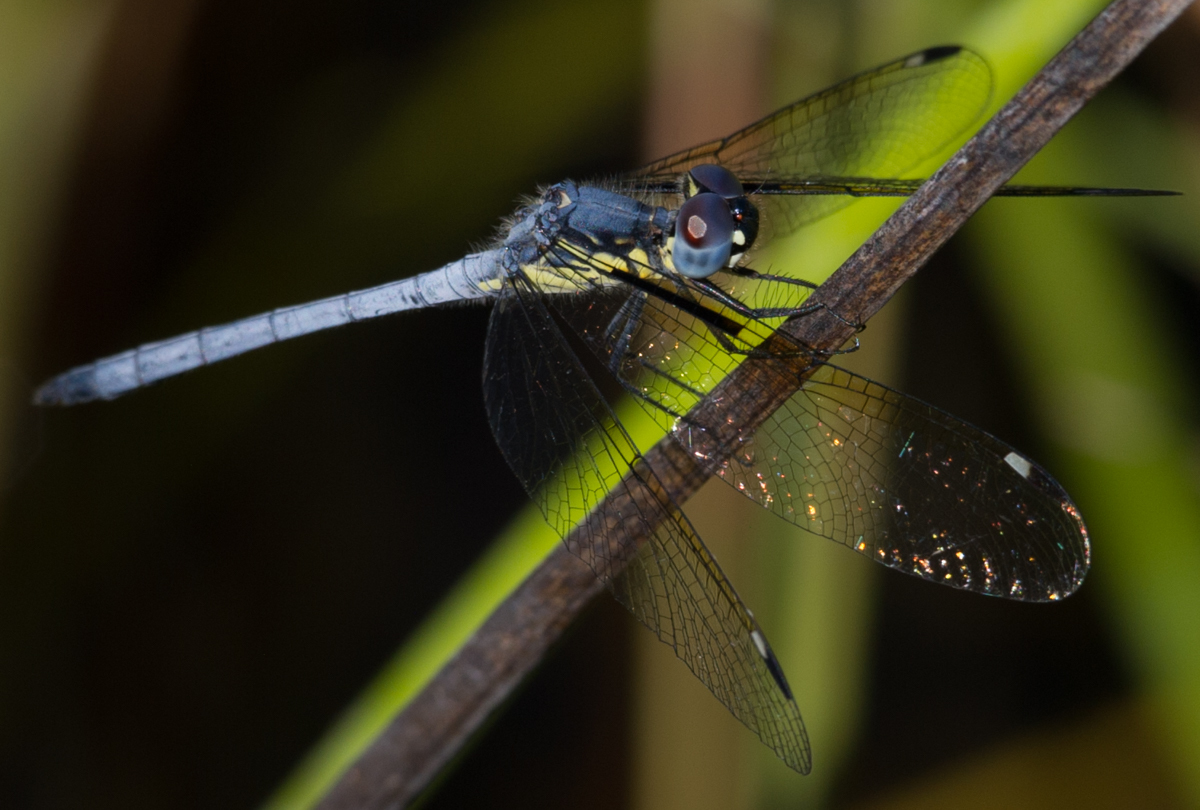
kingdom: Animalia
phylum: Arthropoda
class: Insecta
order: Odonata
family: Libellulidae
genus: Hemistigma
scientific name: Hemistigma albipunctum
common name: African pied-spot
